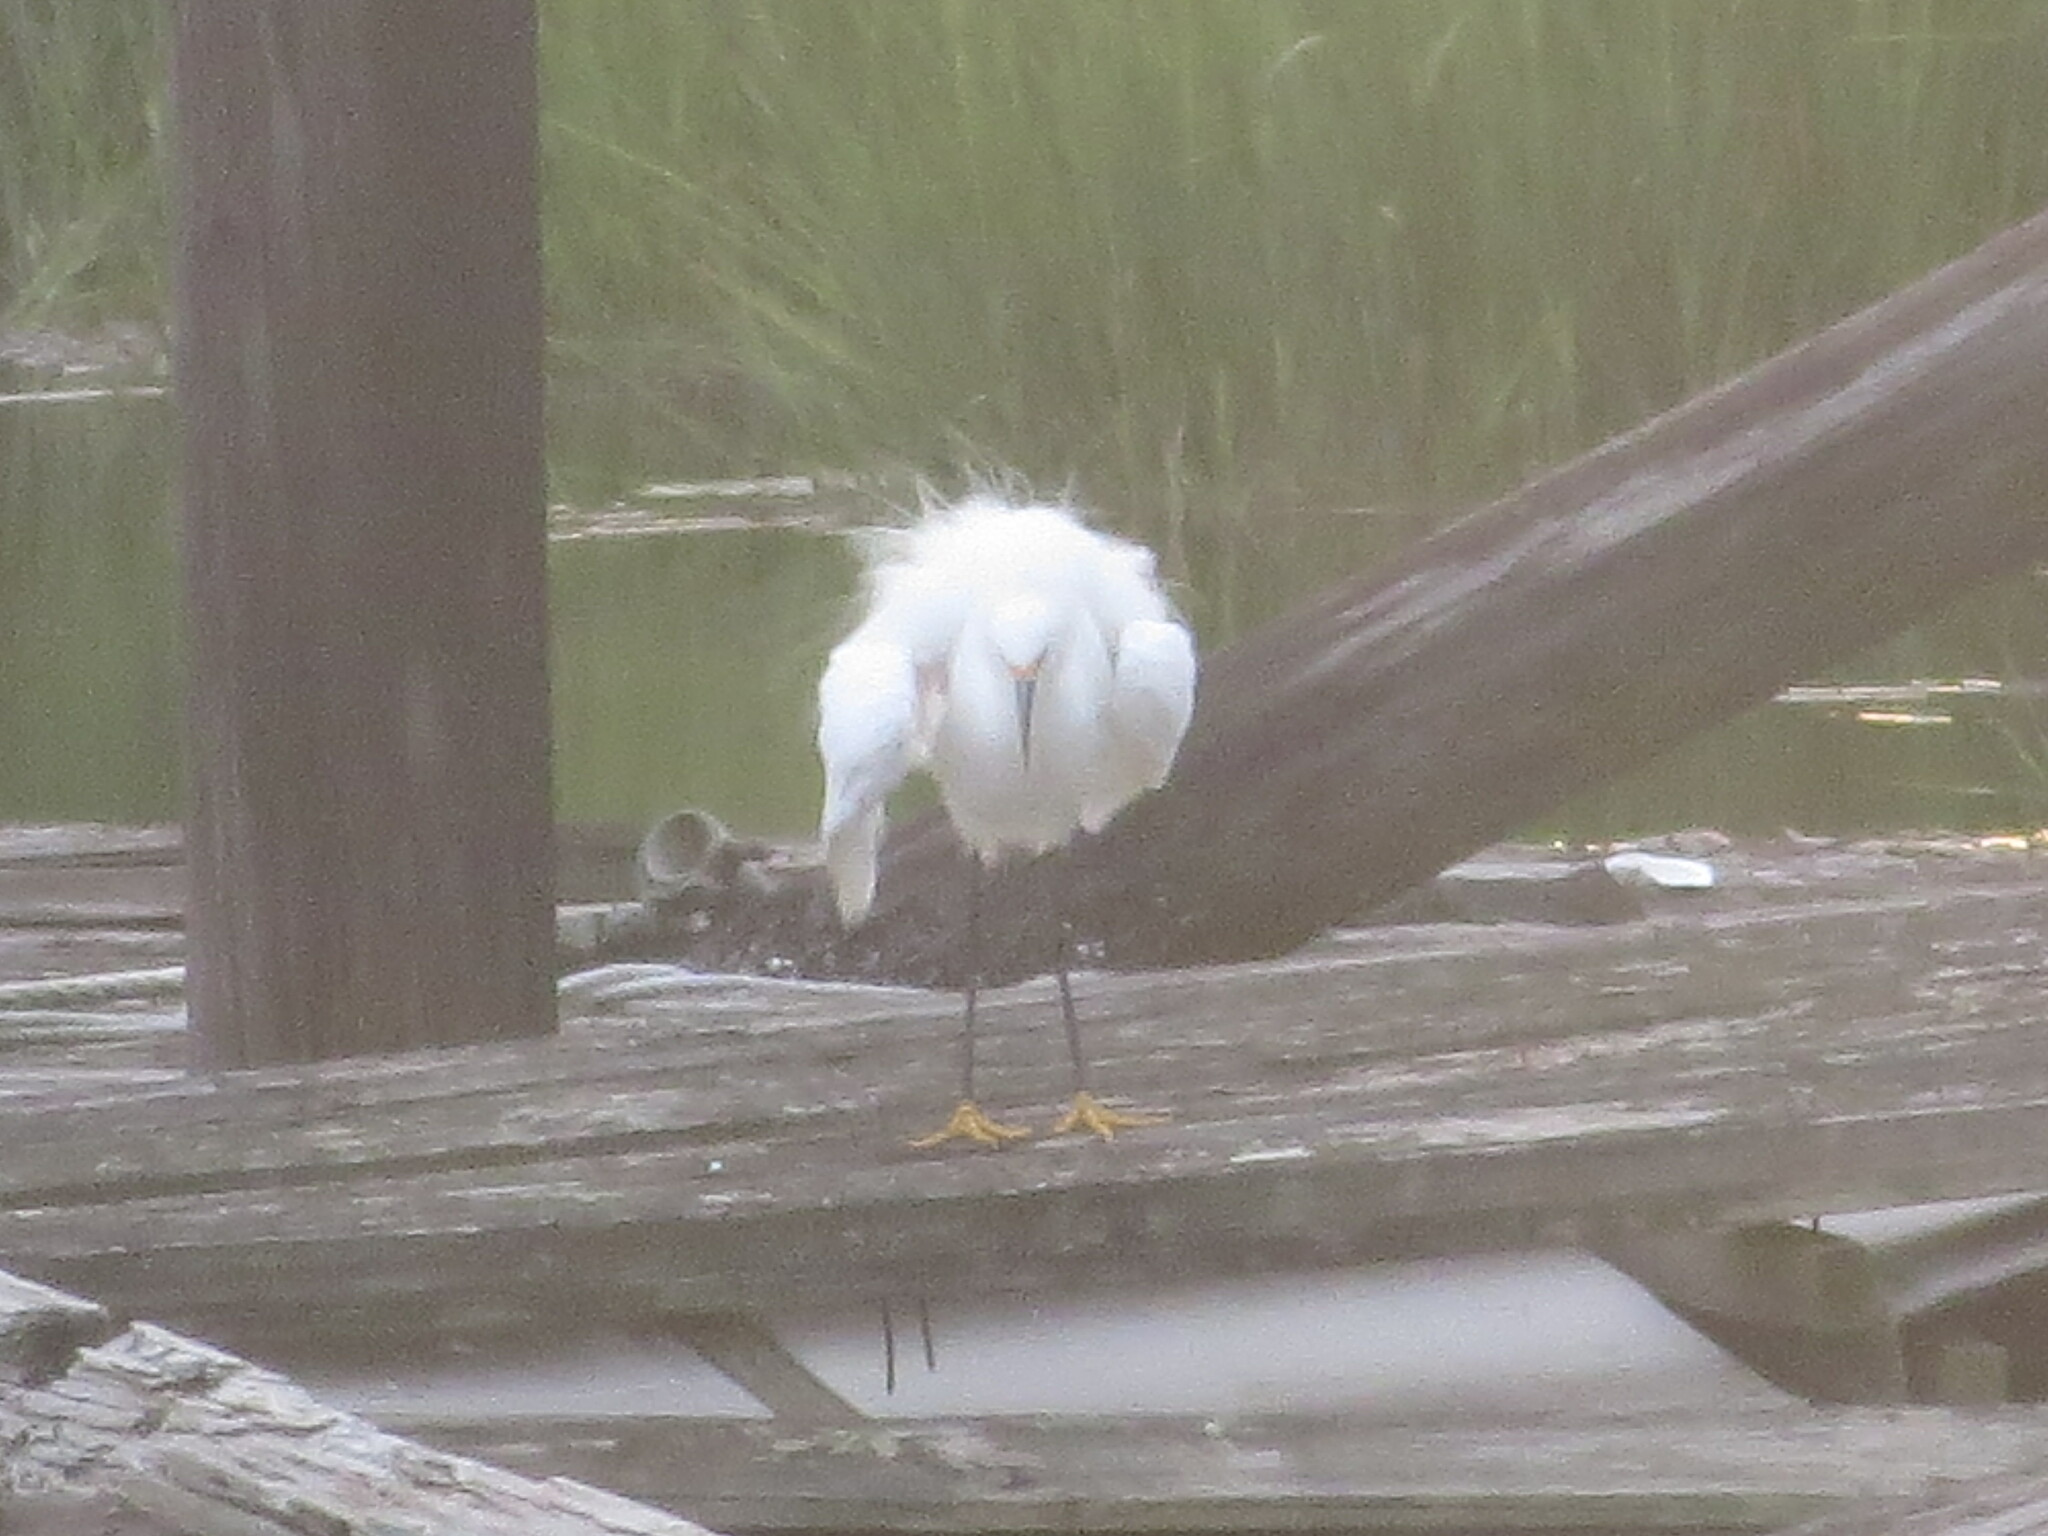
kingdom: Animalia
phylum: Chordata
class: Aves
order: Pelecaniformes
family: Ardeidae
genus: Egretta
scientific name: Egretta thula
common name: Snowy egret
